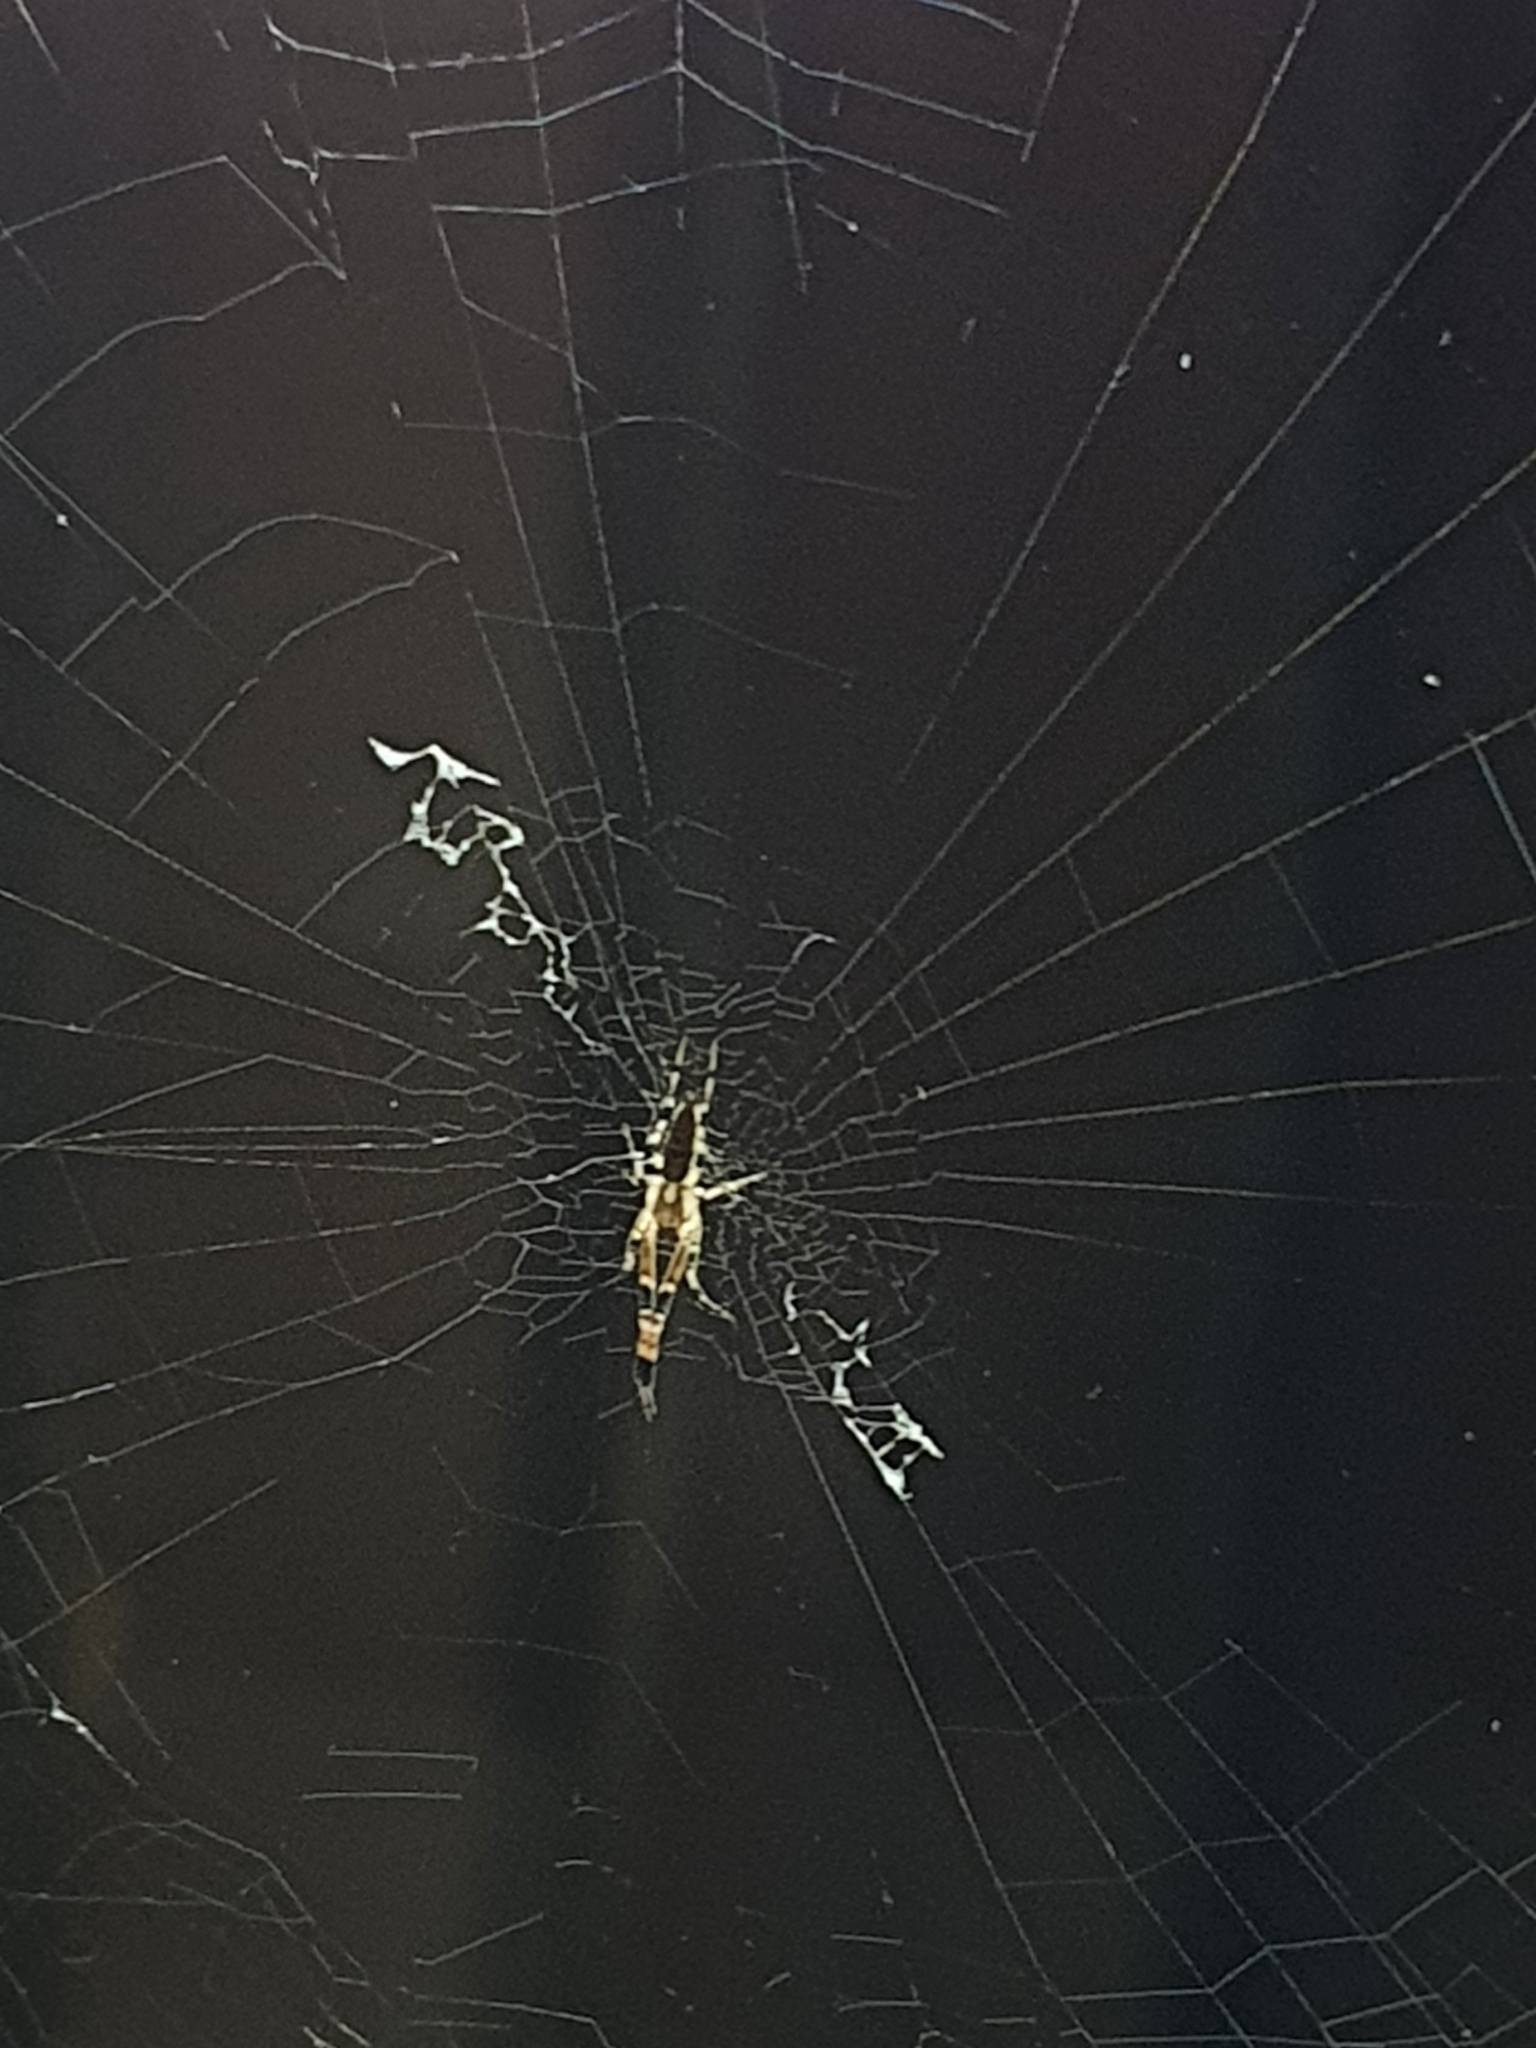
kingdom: Animalia
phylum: Arthropoda
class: Arachnida
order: Araneae
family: Uloboridae
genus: Zosis
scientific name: Zosis geniculata
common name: Hackled orb weavers
